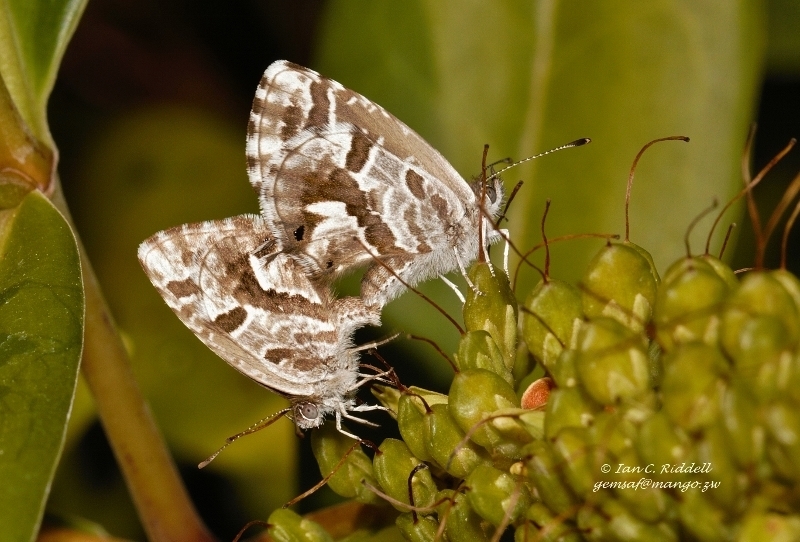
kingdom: Animalia
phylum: Arthropoda
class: Insecta
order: Lepidoptera
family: Lycaenidae
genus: Cacyreus
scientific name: Cacyreus marshalli
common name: Geranium bronze
